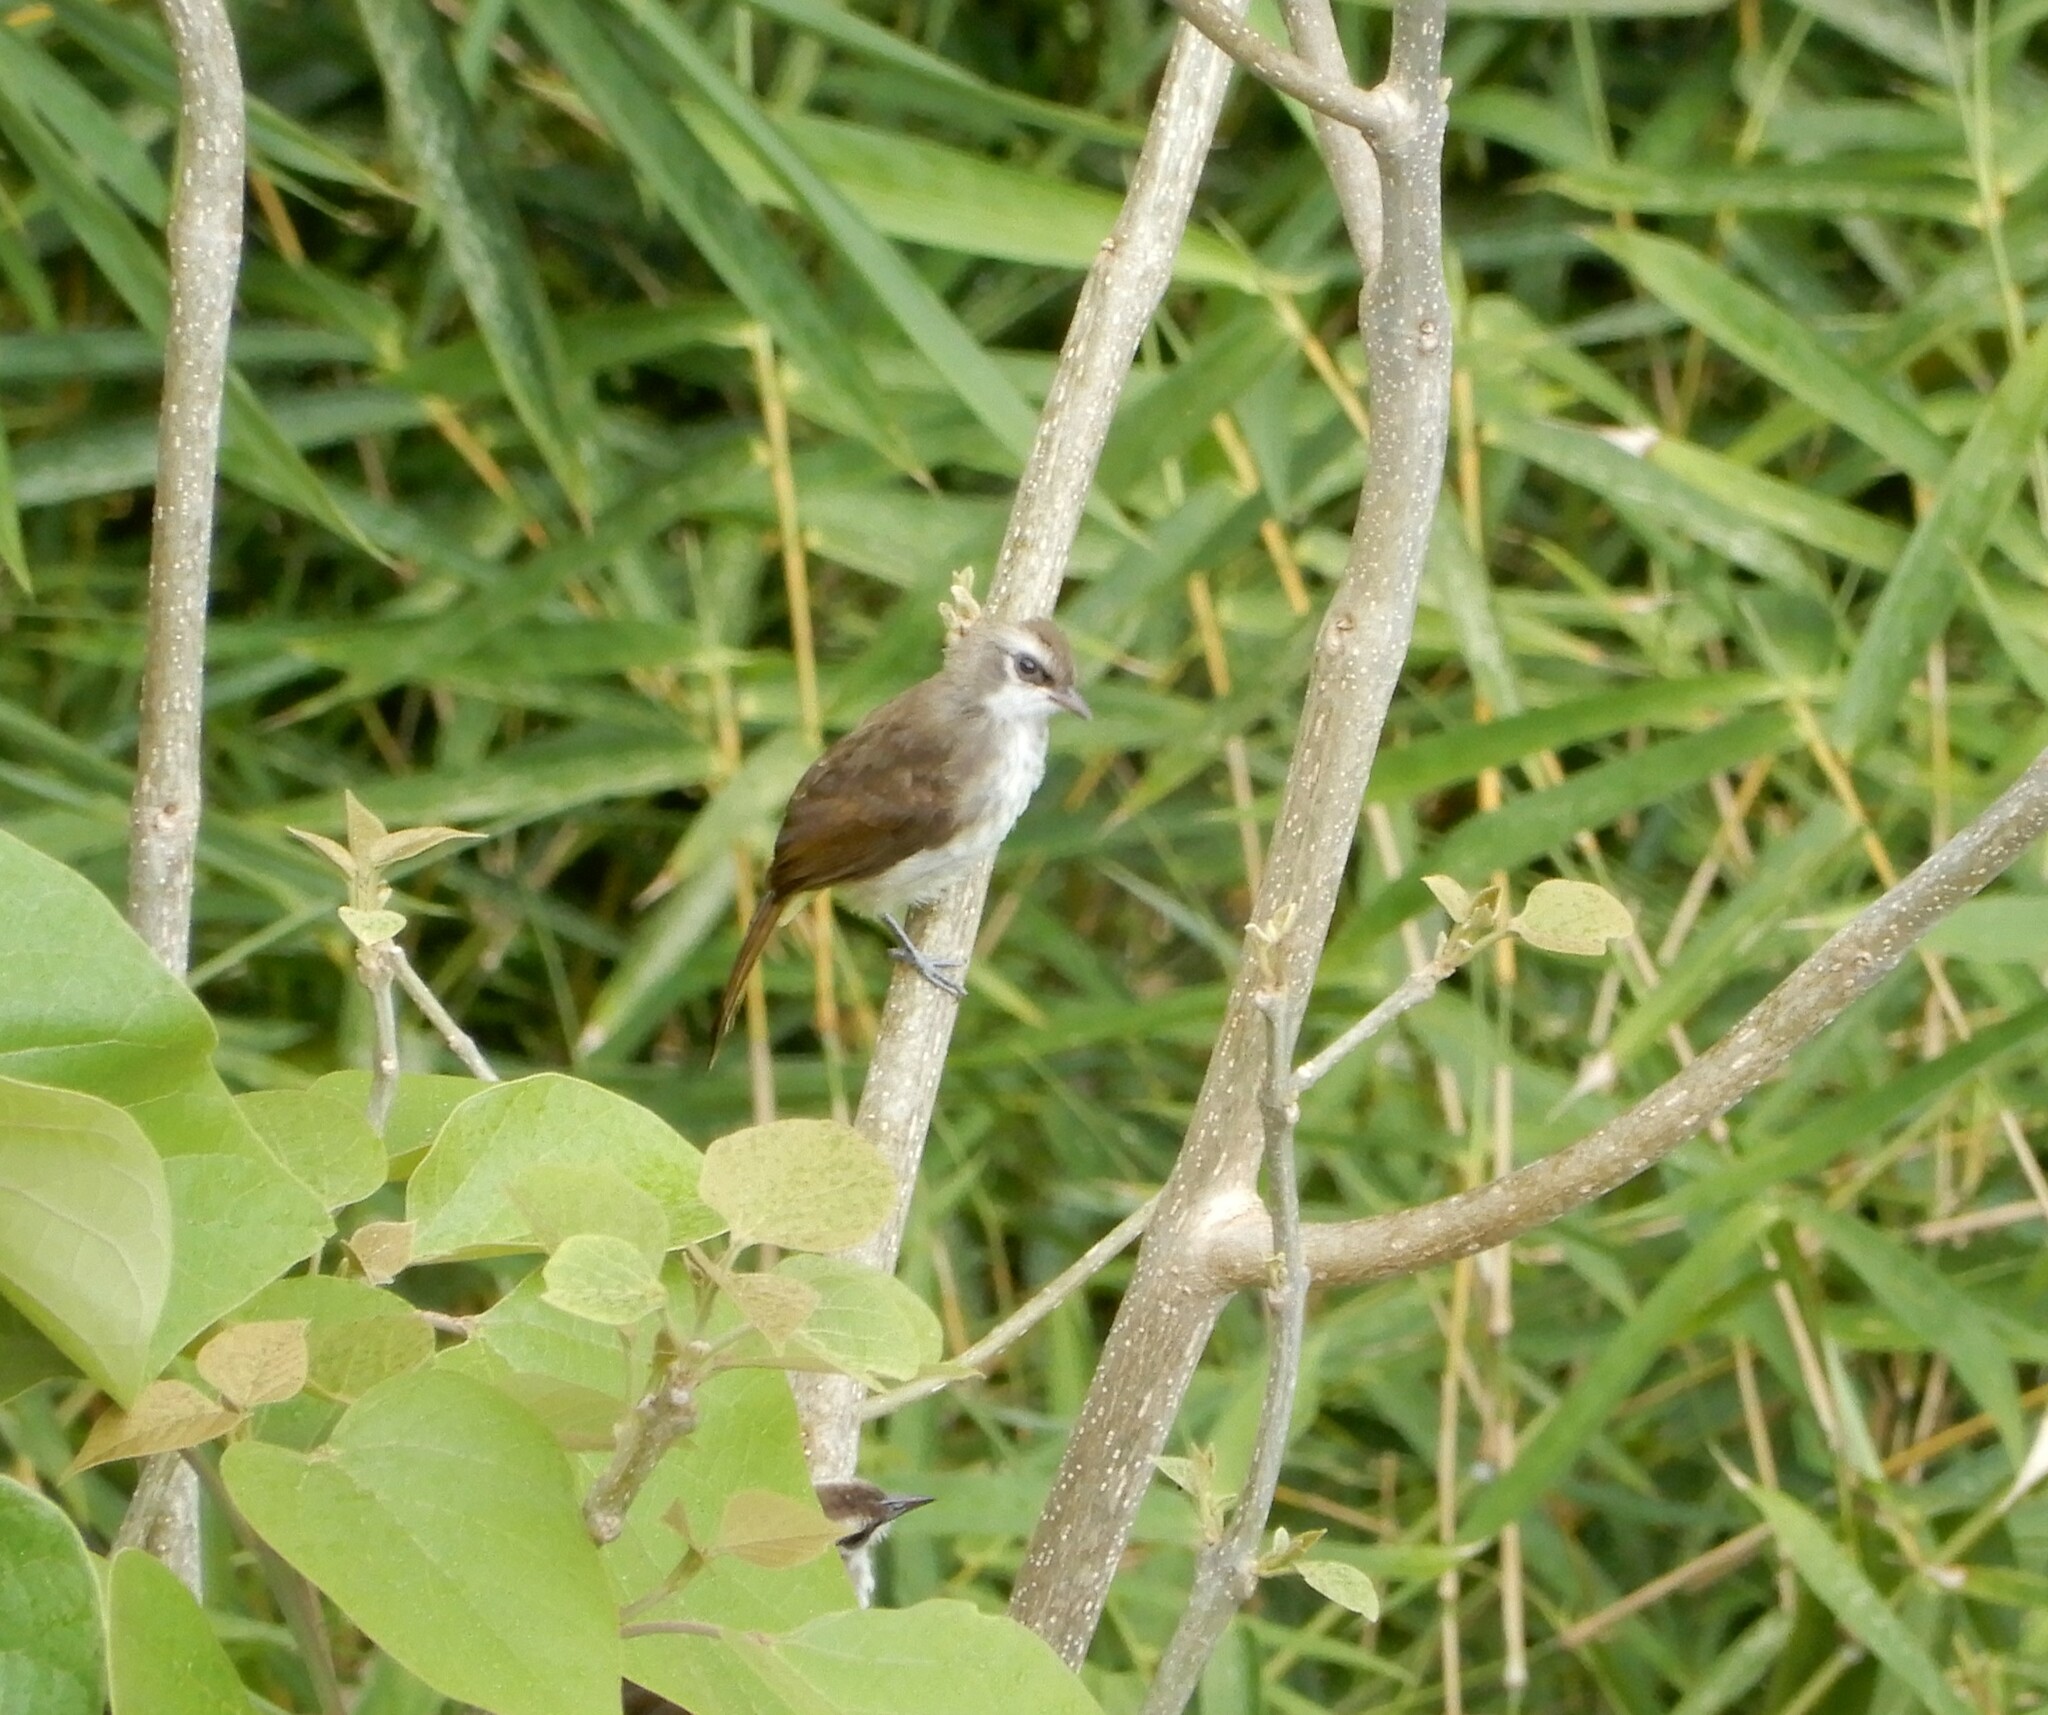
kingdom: Animalia
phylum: Chordata
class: Aves
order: Passeriformes
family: Pycnonotidae
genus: Pycnonotus
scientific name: Pycnonotus goiavier
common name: Yellow-vented bulbul
